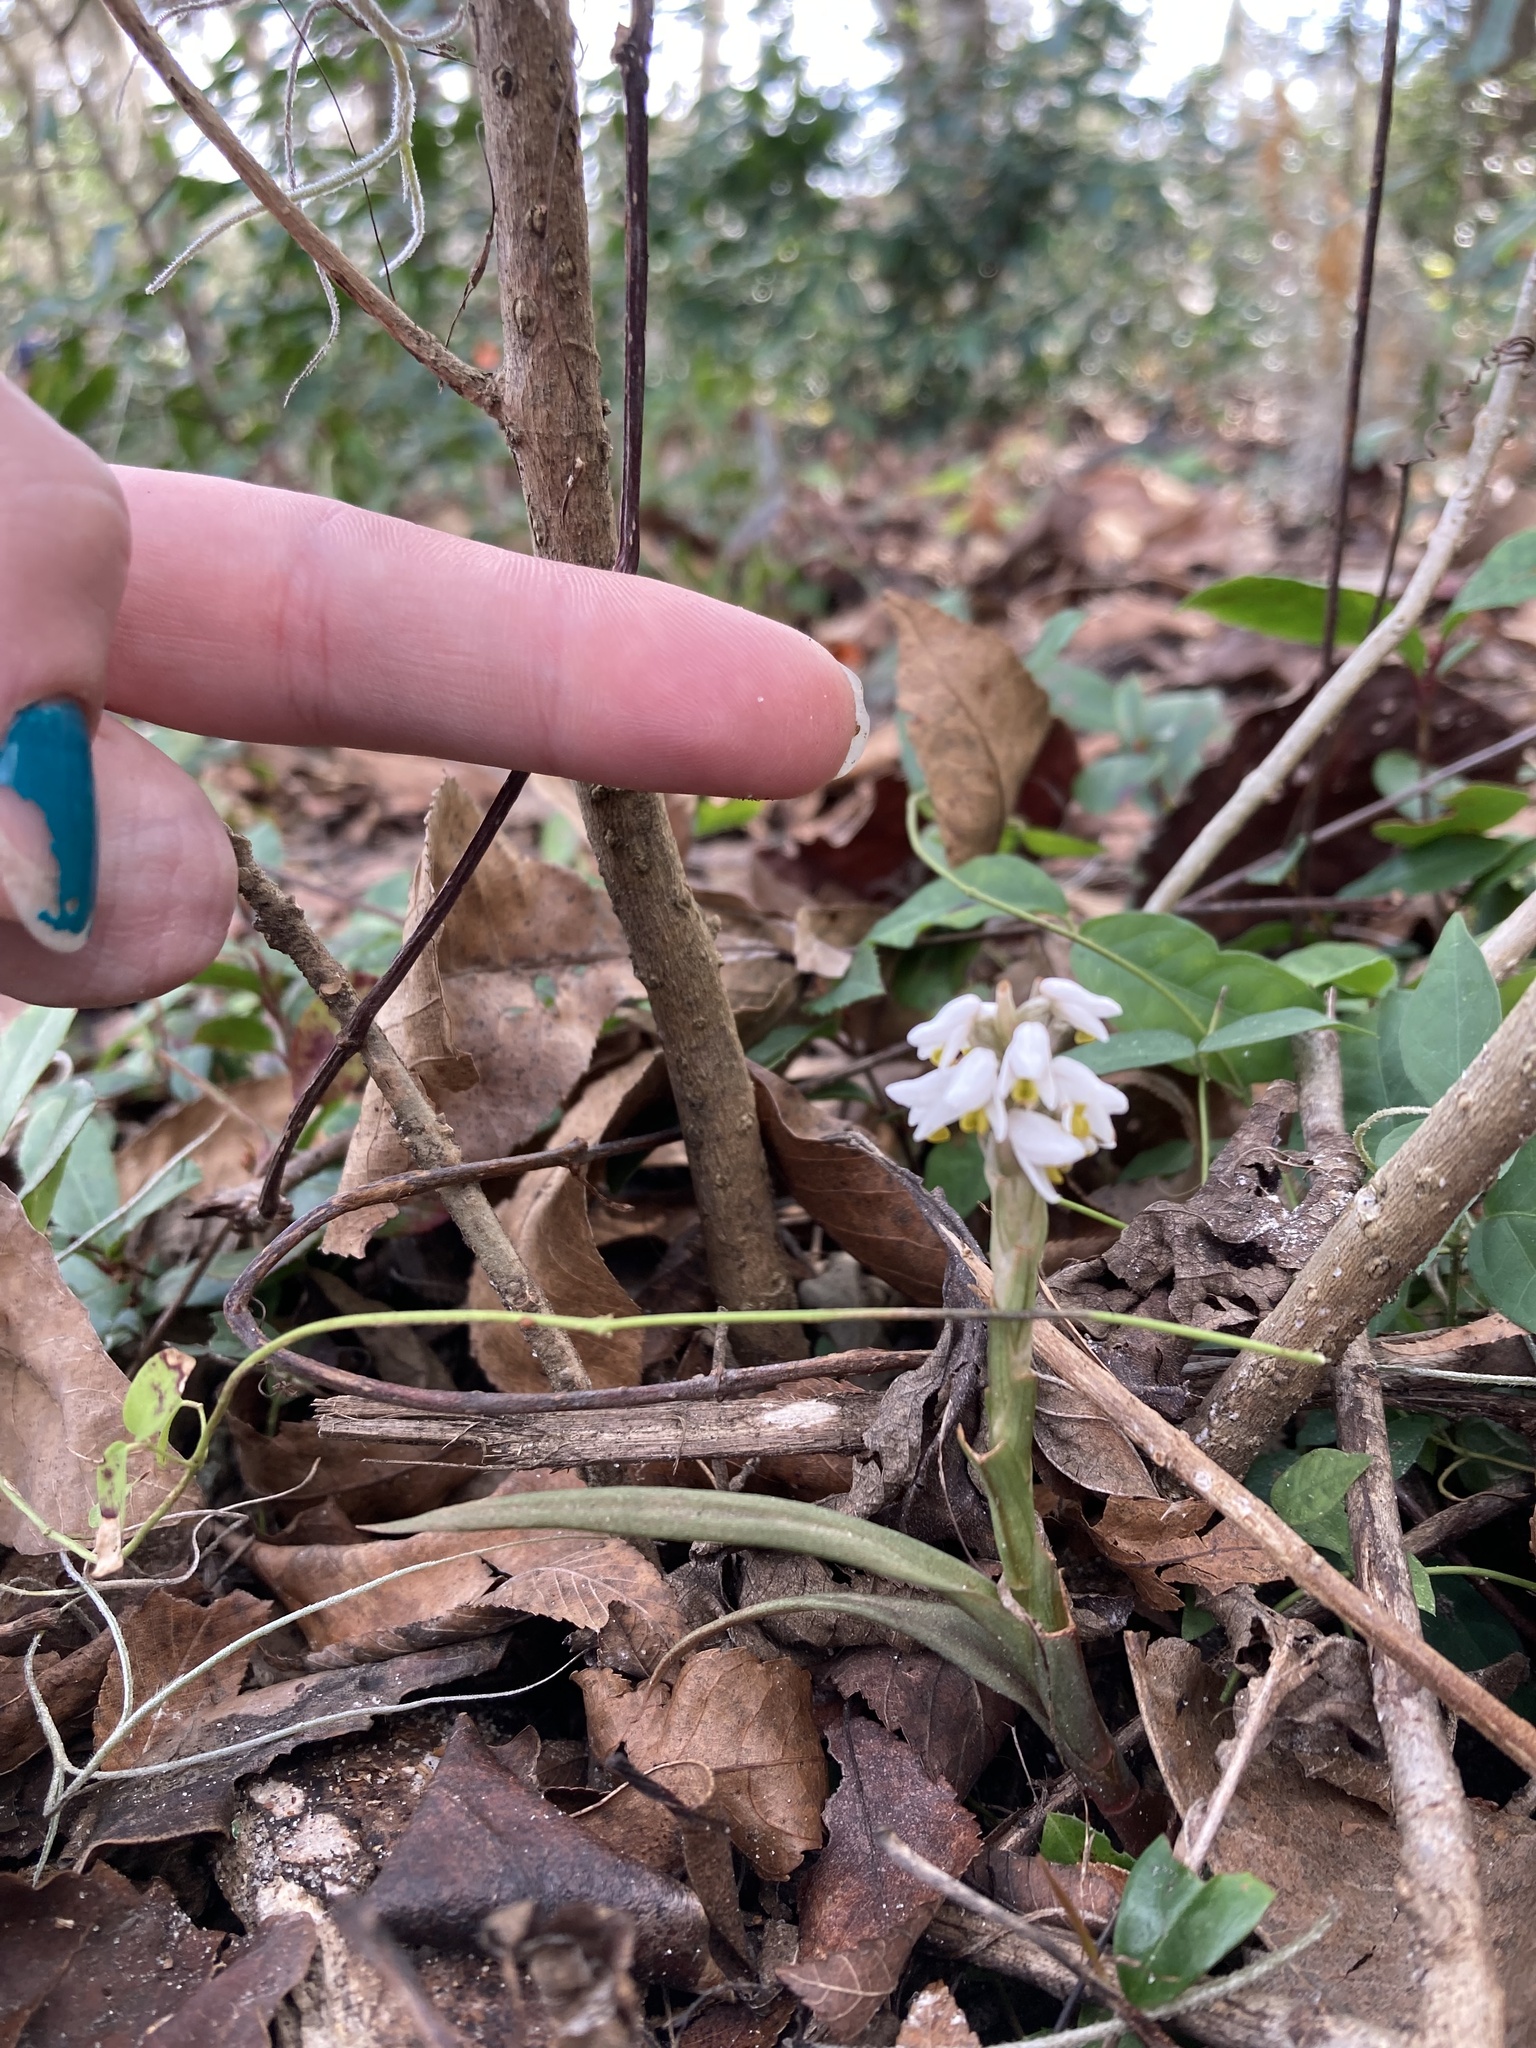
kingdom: Plantae
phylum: Tracheophyta
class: Liliopsida
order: Asparagales
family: Orchidaceae
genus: Zeuxine
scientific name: Zeuxine strateumatica
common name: Soldier's orchid
